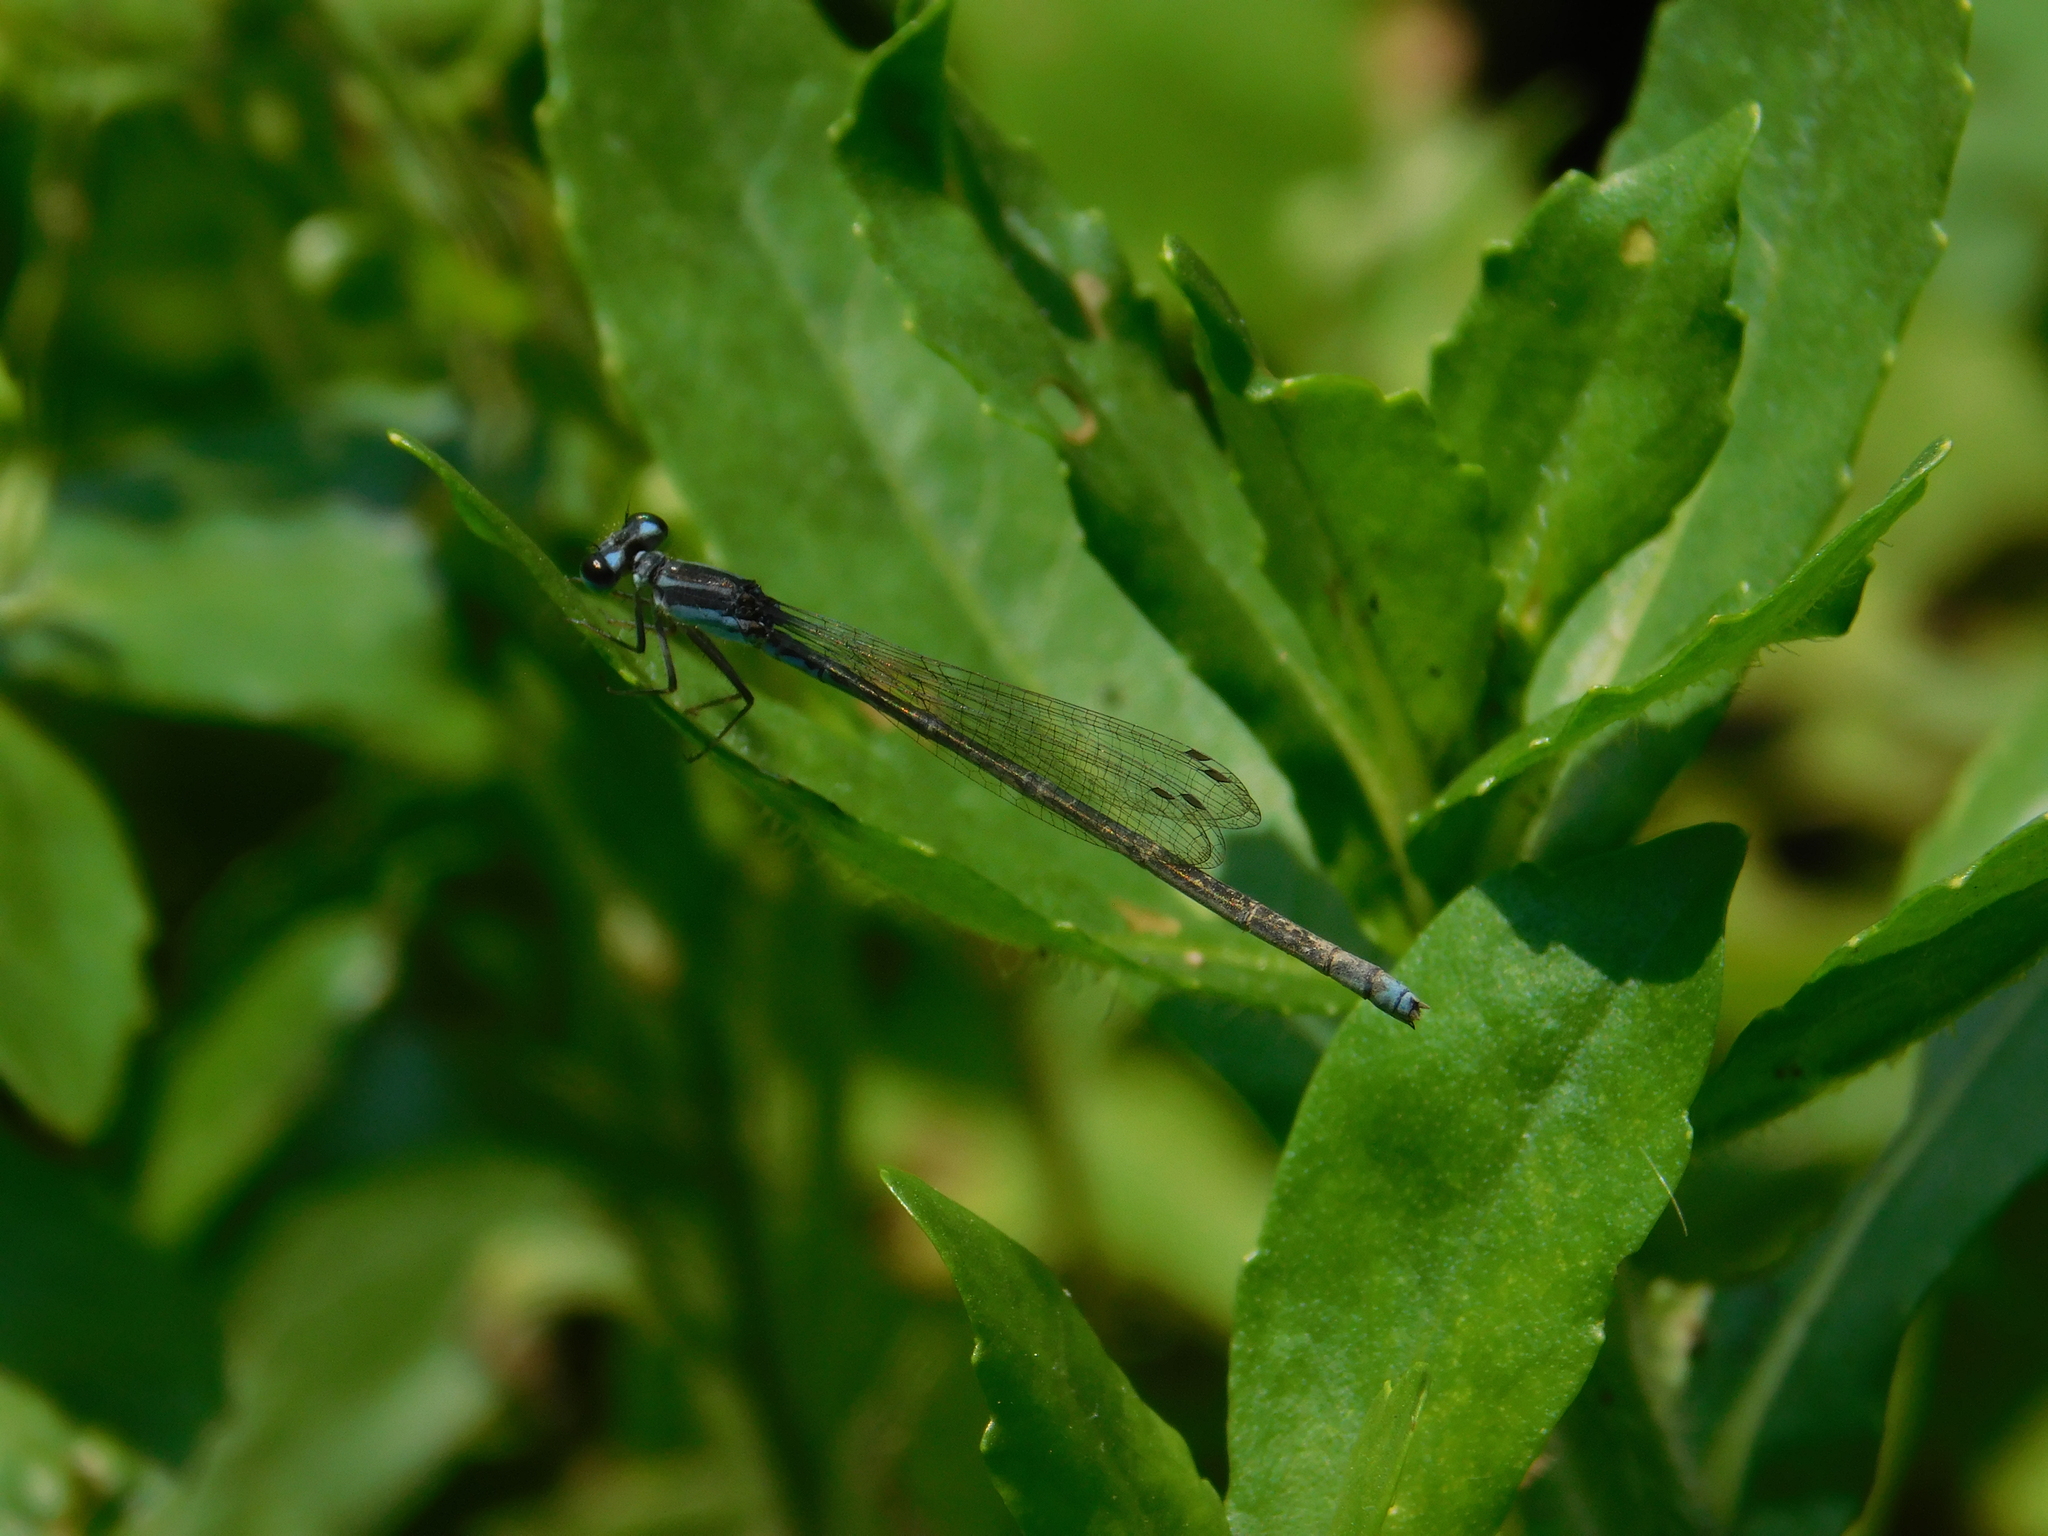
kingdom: Animalia
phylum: Arthropoda
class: Insecta
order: Odonata
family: Coenagrionidae
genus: Homeoura
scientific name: Homeoura chelifera
